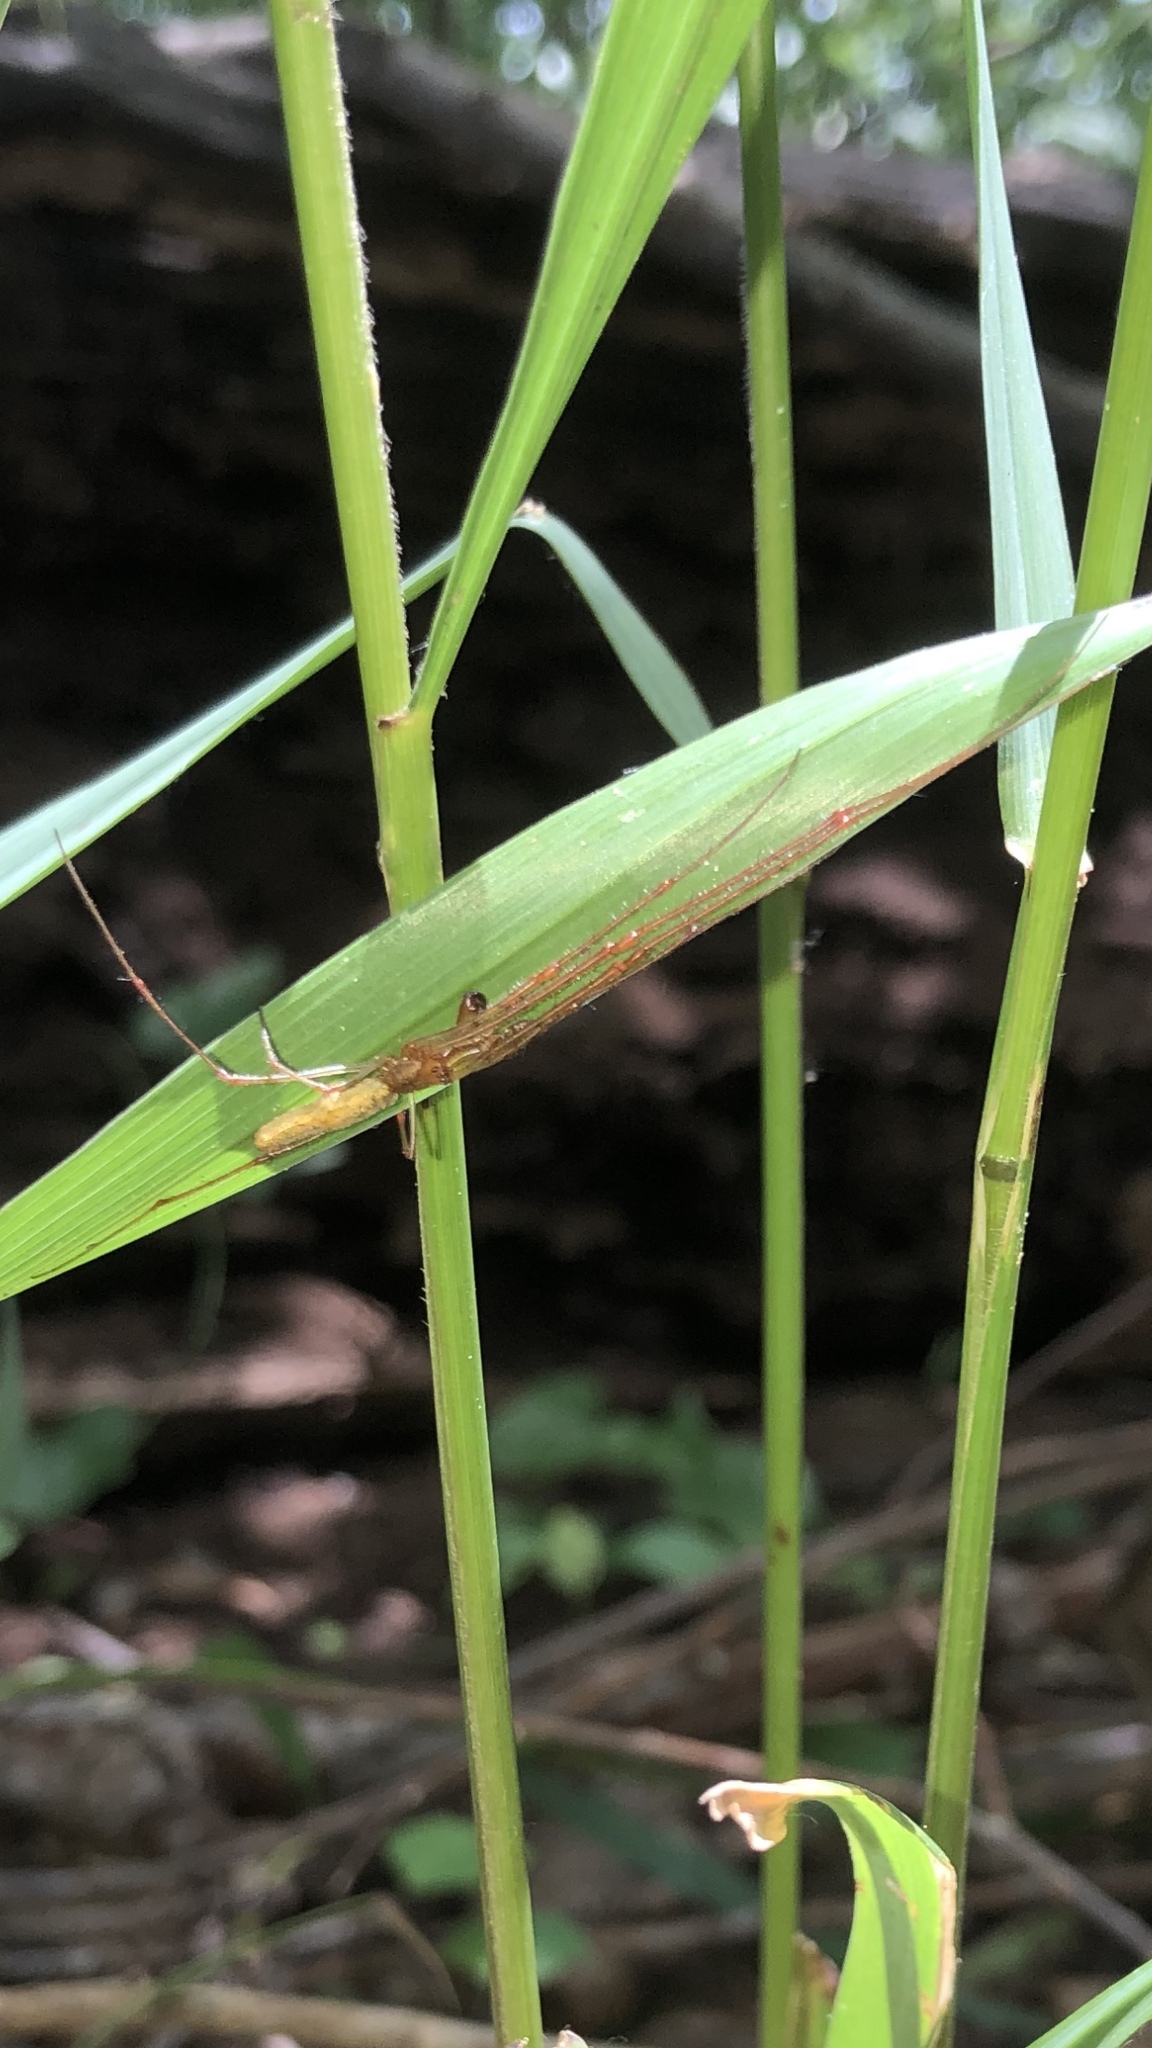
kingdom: Animalia
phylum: Arthropoda
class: Arachnida
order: Araneae
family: Tetragnathidae
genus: Tetragnatha
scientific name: Tetragnatha
